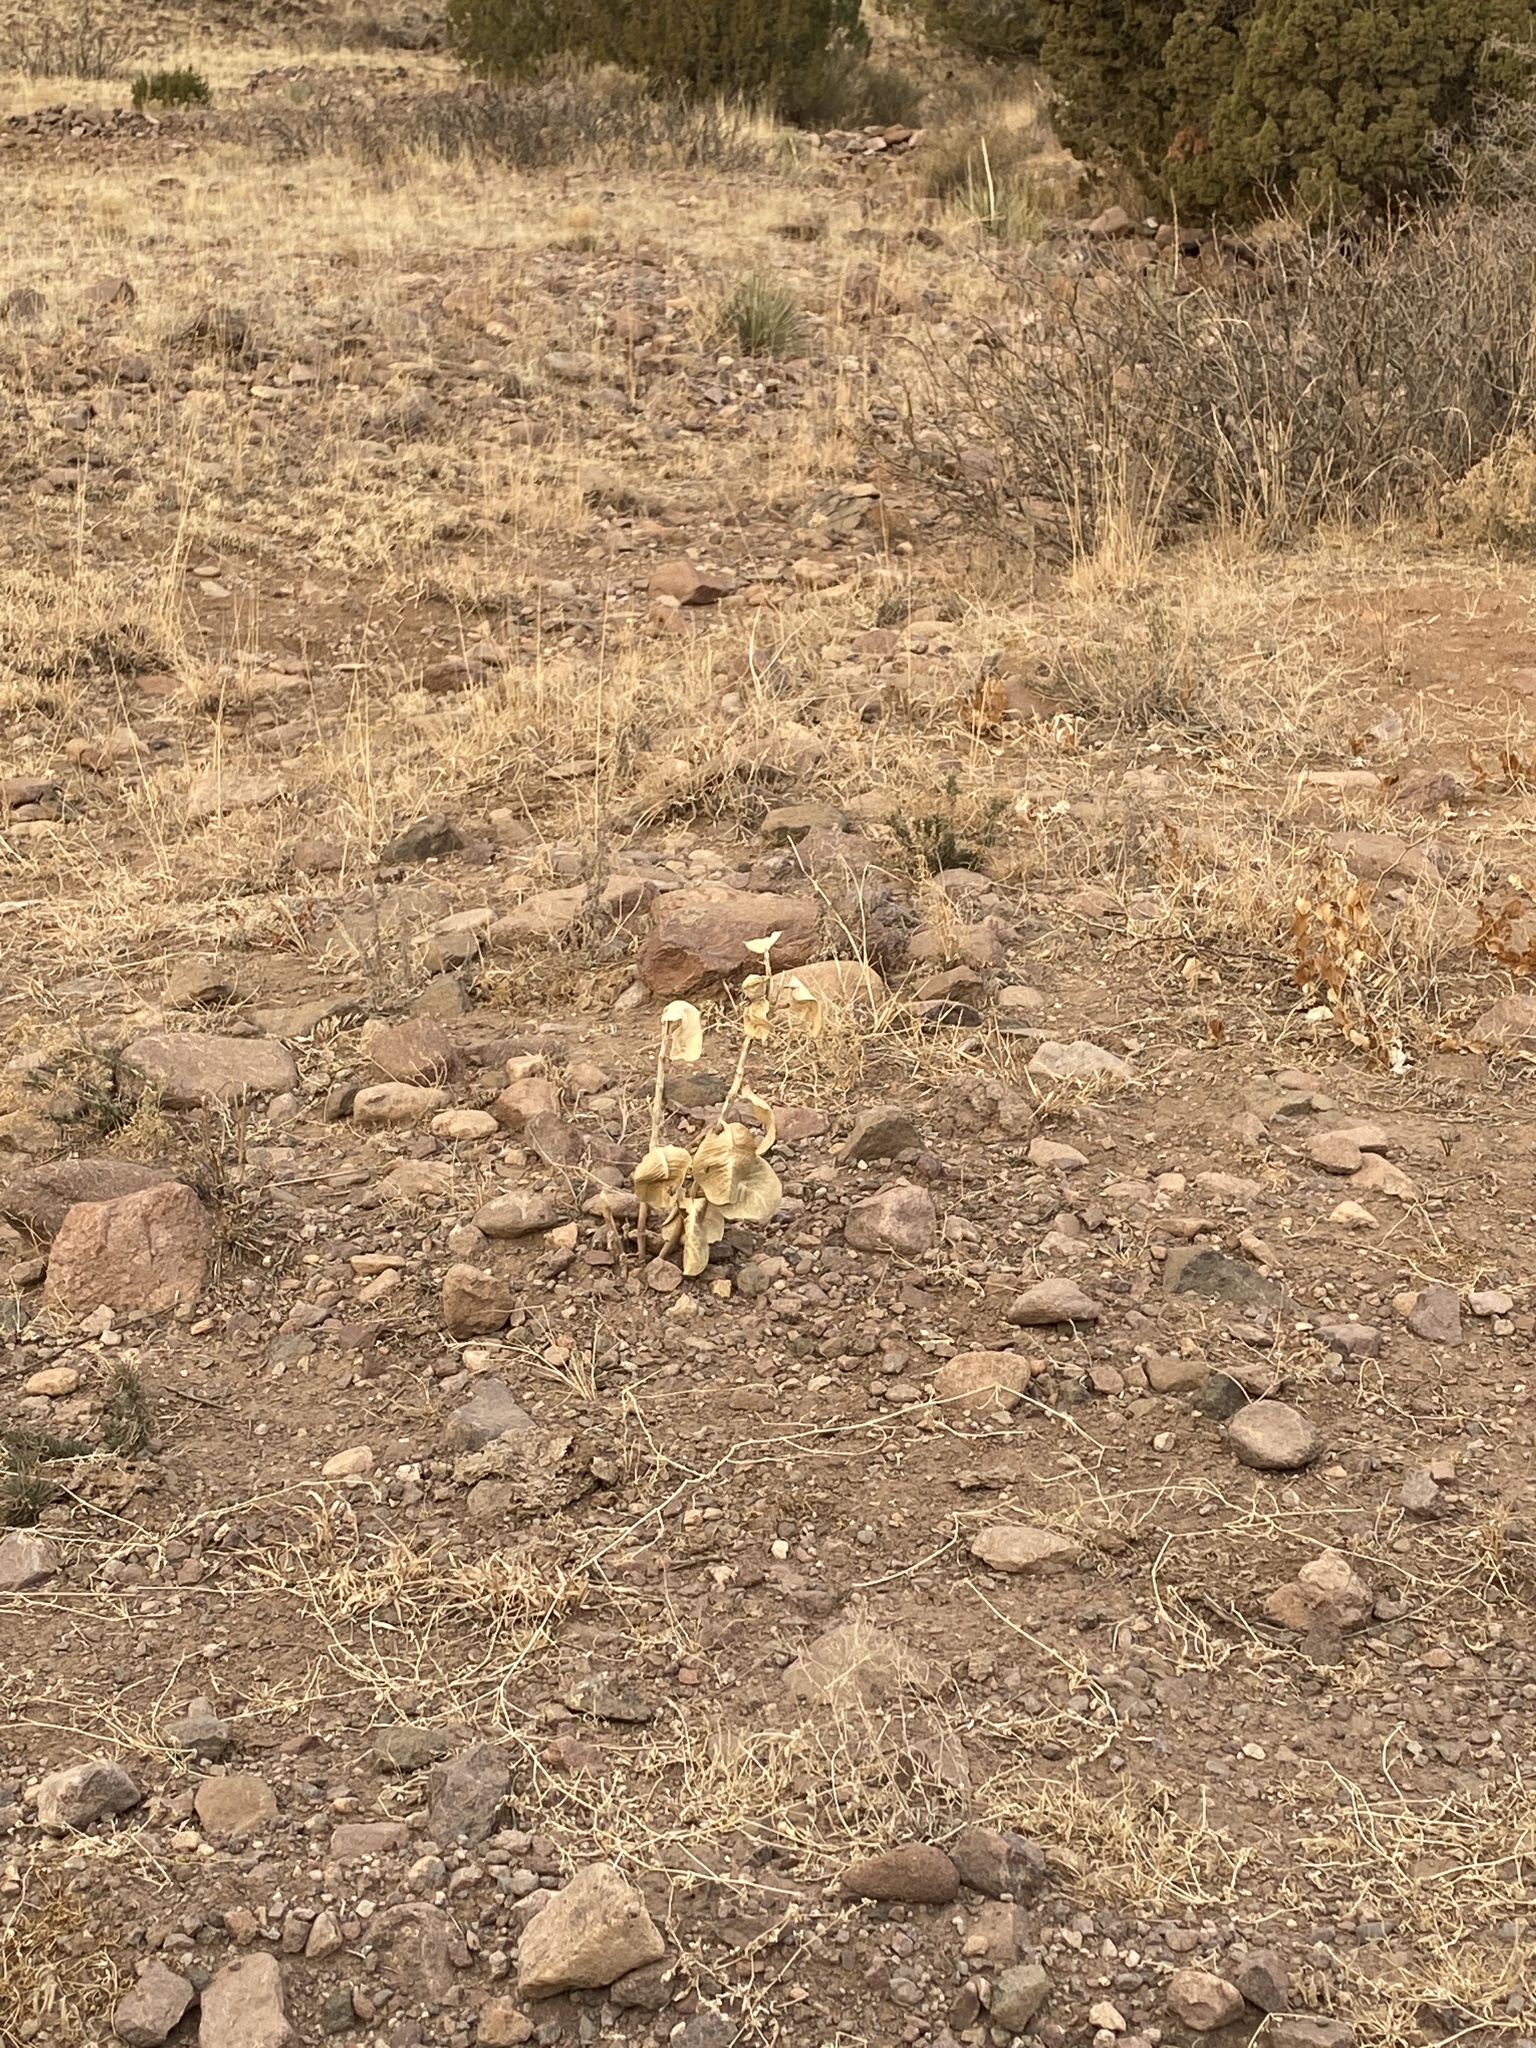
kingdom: Plantae
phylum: Tracheophyta
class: Magnoliopsida
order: Gentianales
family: Apocynaceae
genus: Asclepias
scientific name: Asclepias latifolia
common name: Broadleaf milkweed
